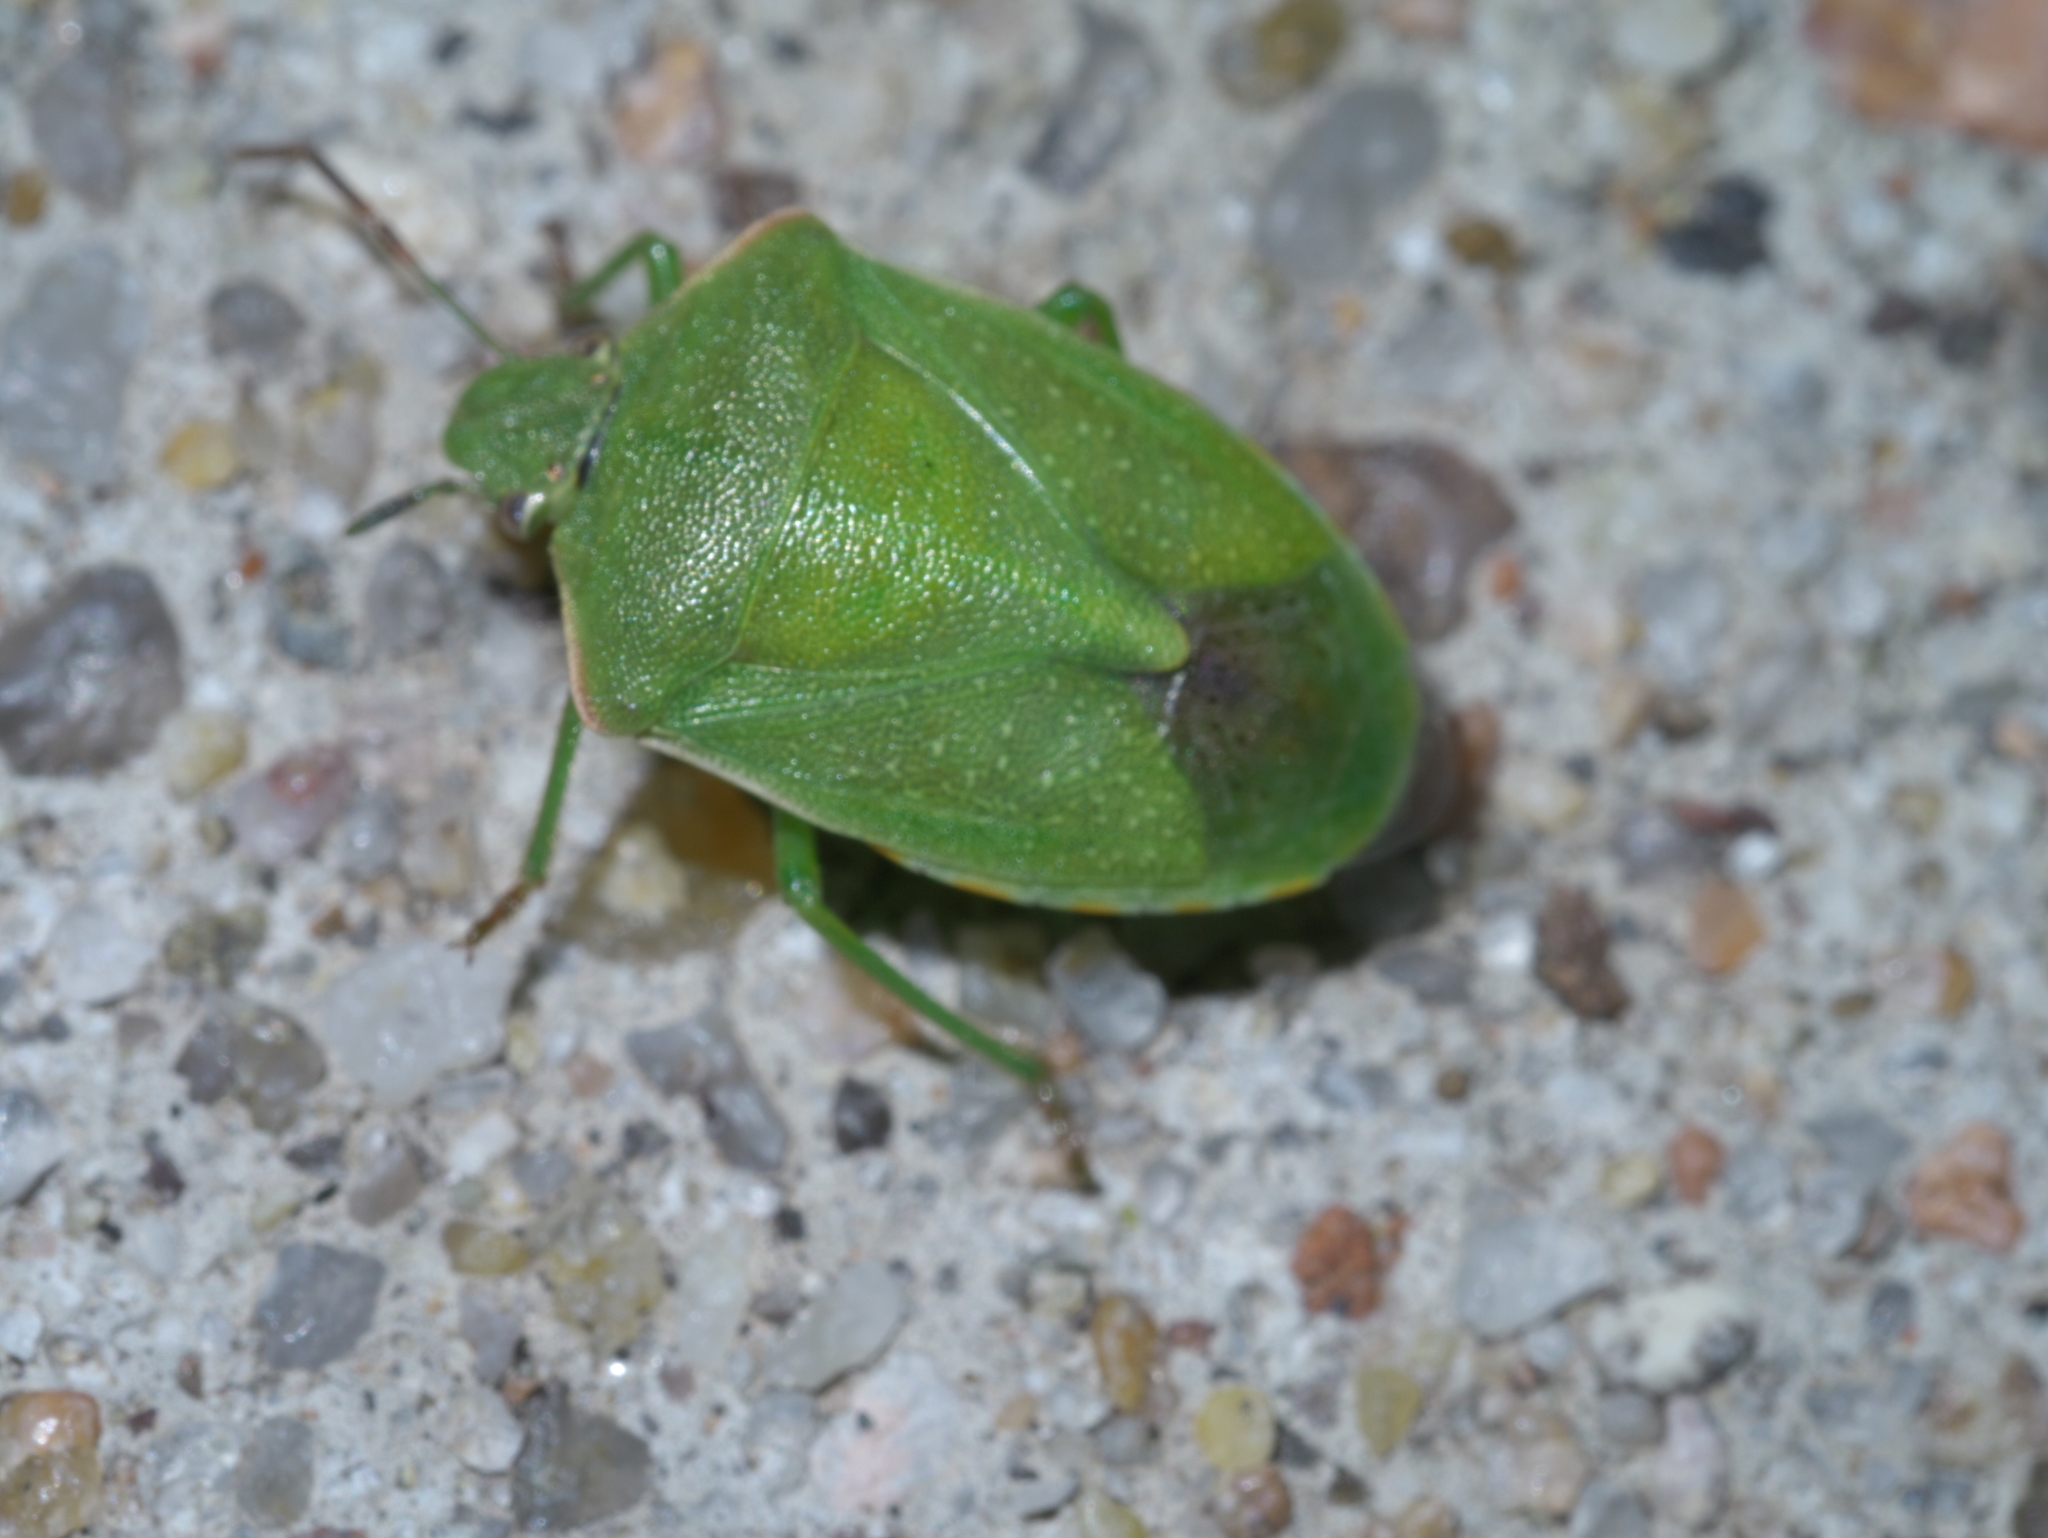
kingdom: Animalia
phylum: Arthropoda
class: Insecta
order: Hemiptera
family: Pentatomidae
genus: Thyanta
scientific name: Thyanta accerra
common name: Stink bug
